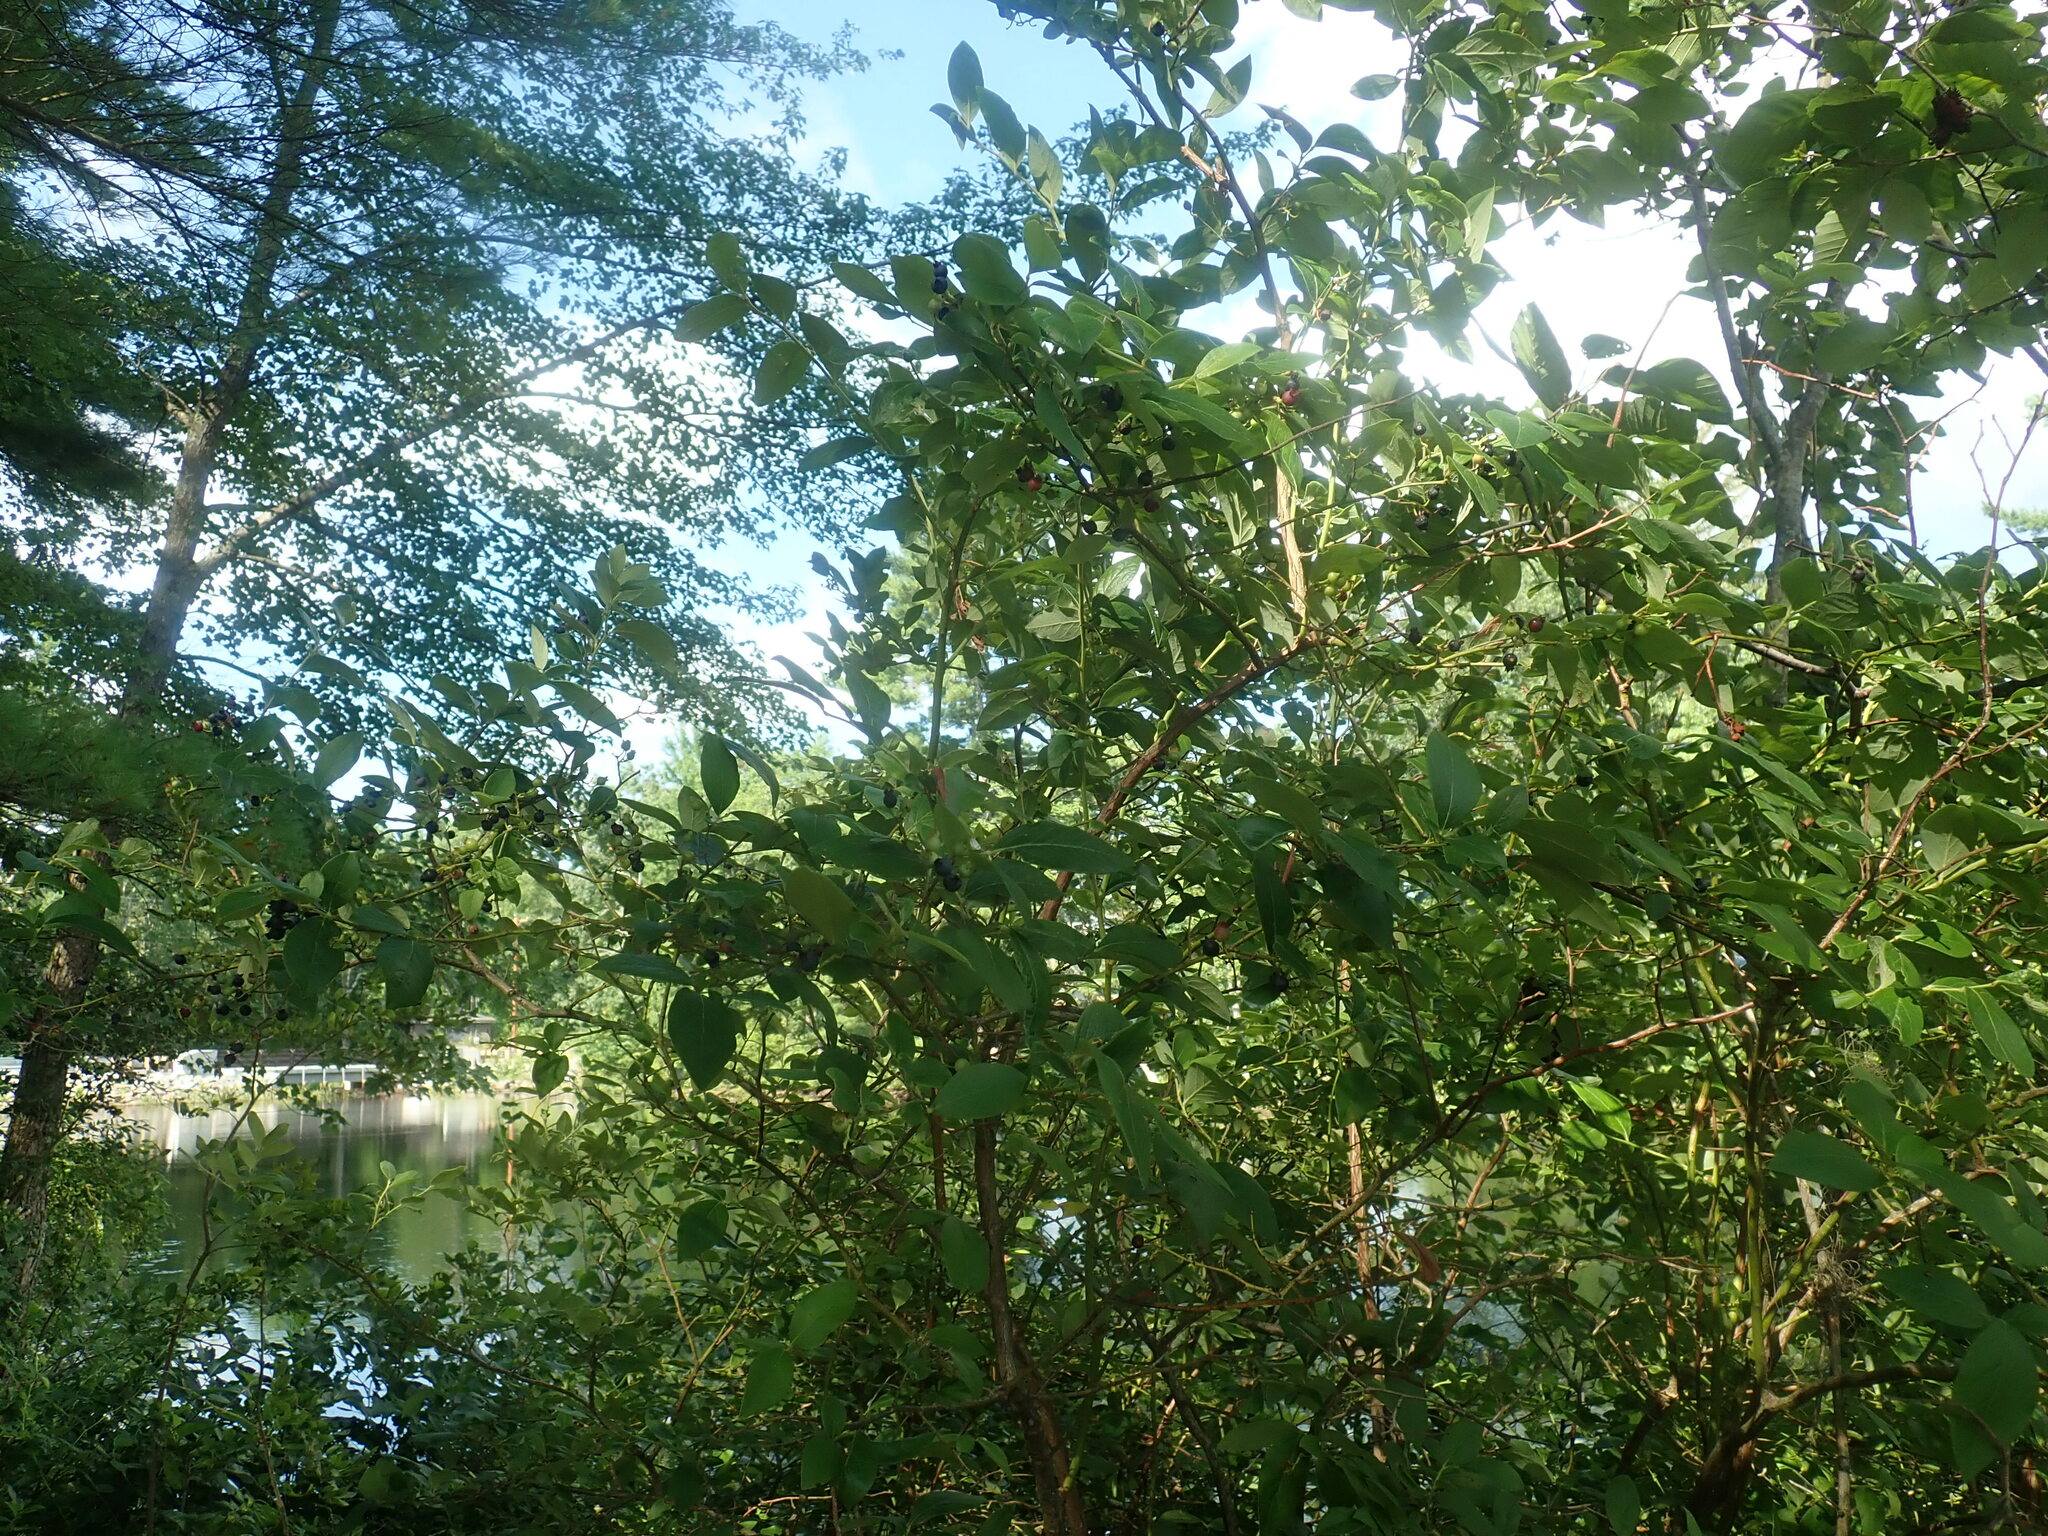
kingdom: Plantae
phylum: Tracheophyta
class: Magnoliopsida
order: Ericales
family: Ericaceae
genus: Vaccinium
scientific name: Vaccinium corymbosum
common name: Blueberry
